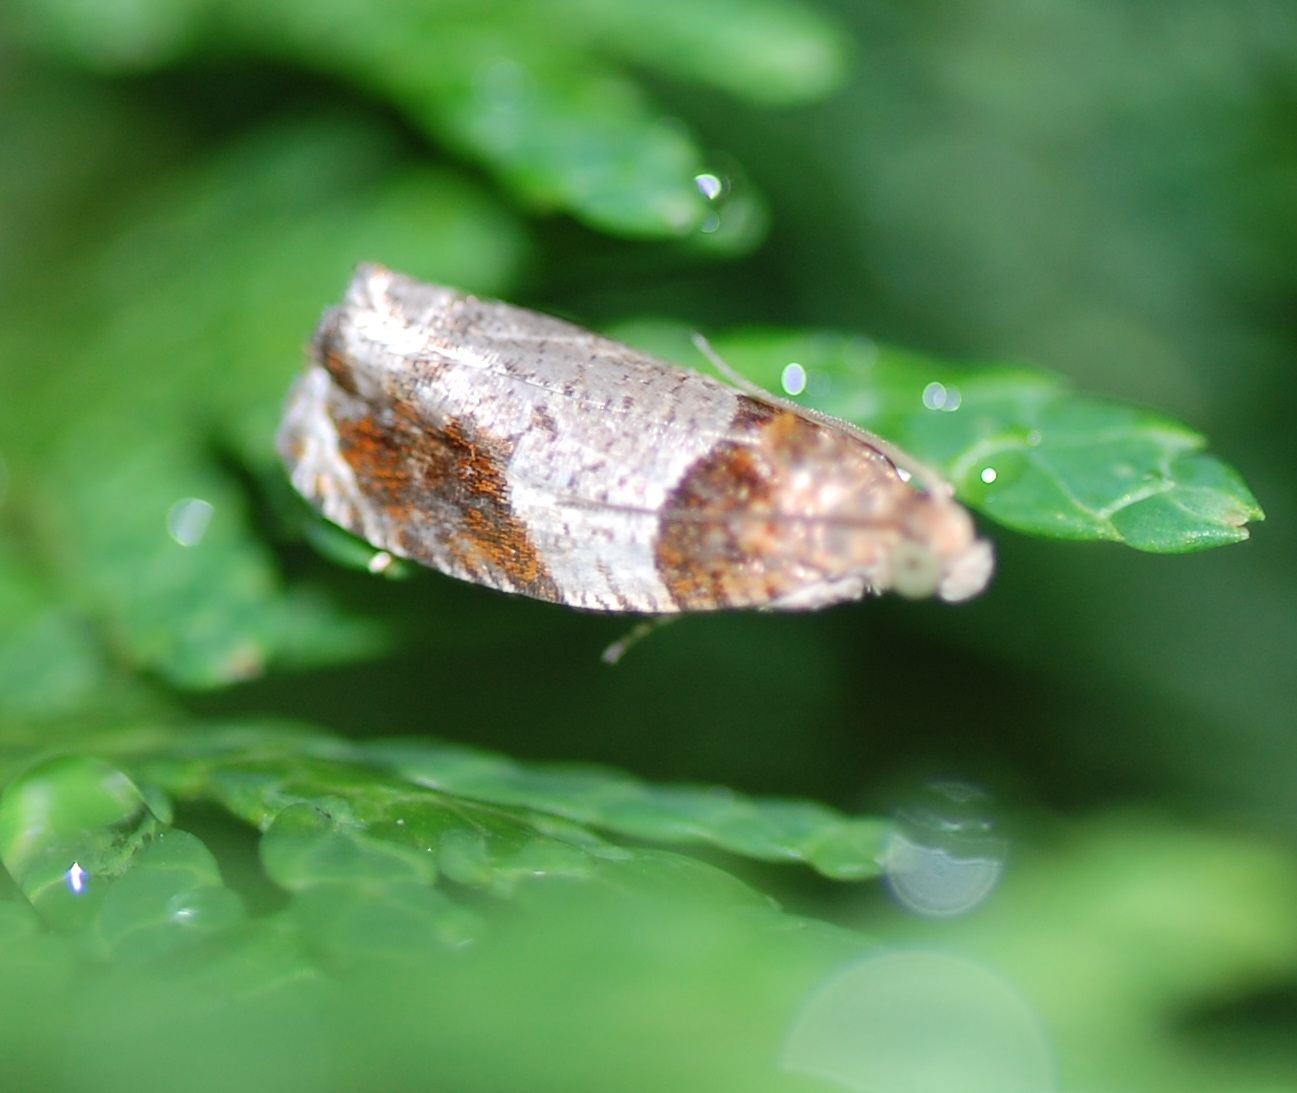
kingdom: Animalia
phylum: Arthropoda
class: Insecta
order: Lepidoptera
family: Tortricidae
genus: Olethreutes
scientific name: Olethreutes ferriferana
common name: Hydrangea leaftier moth
